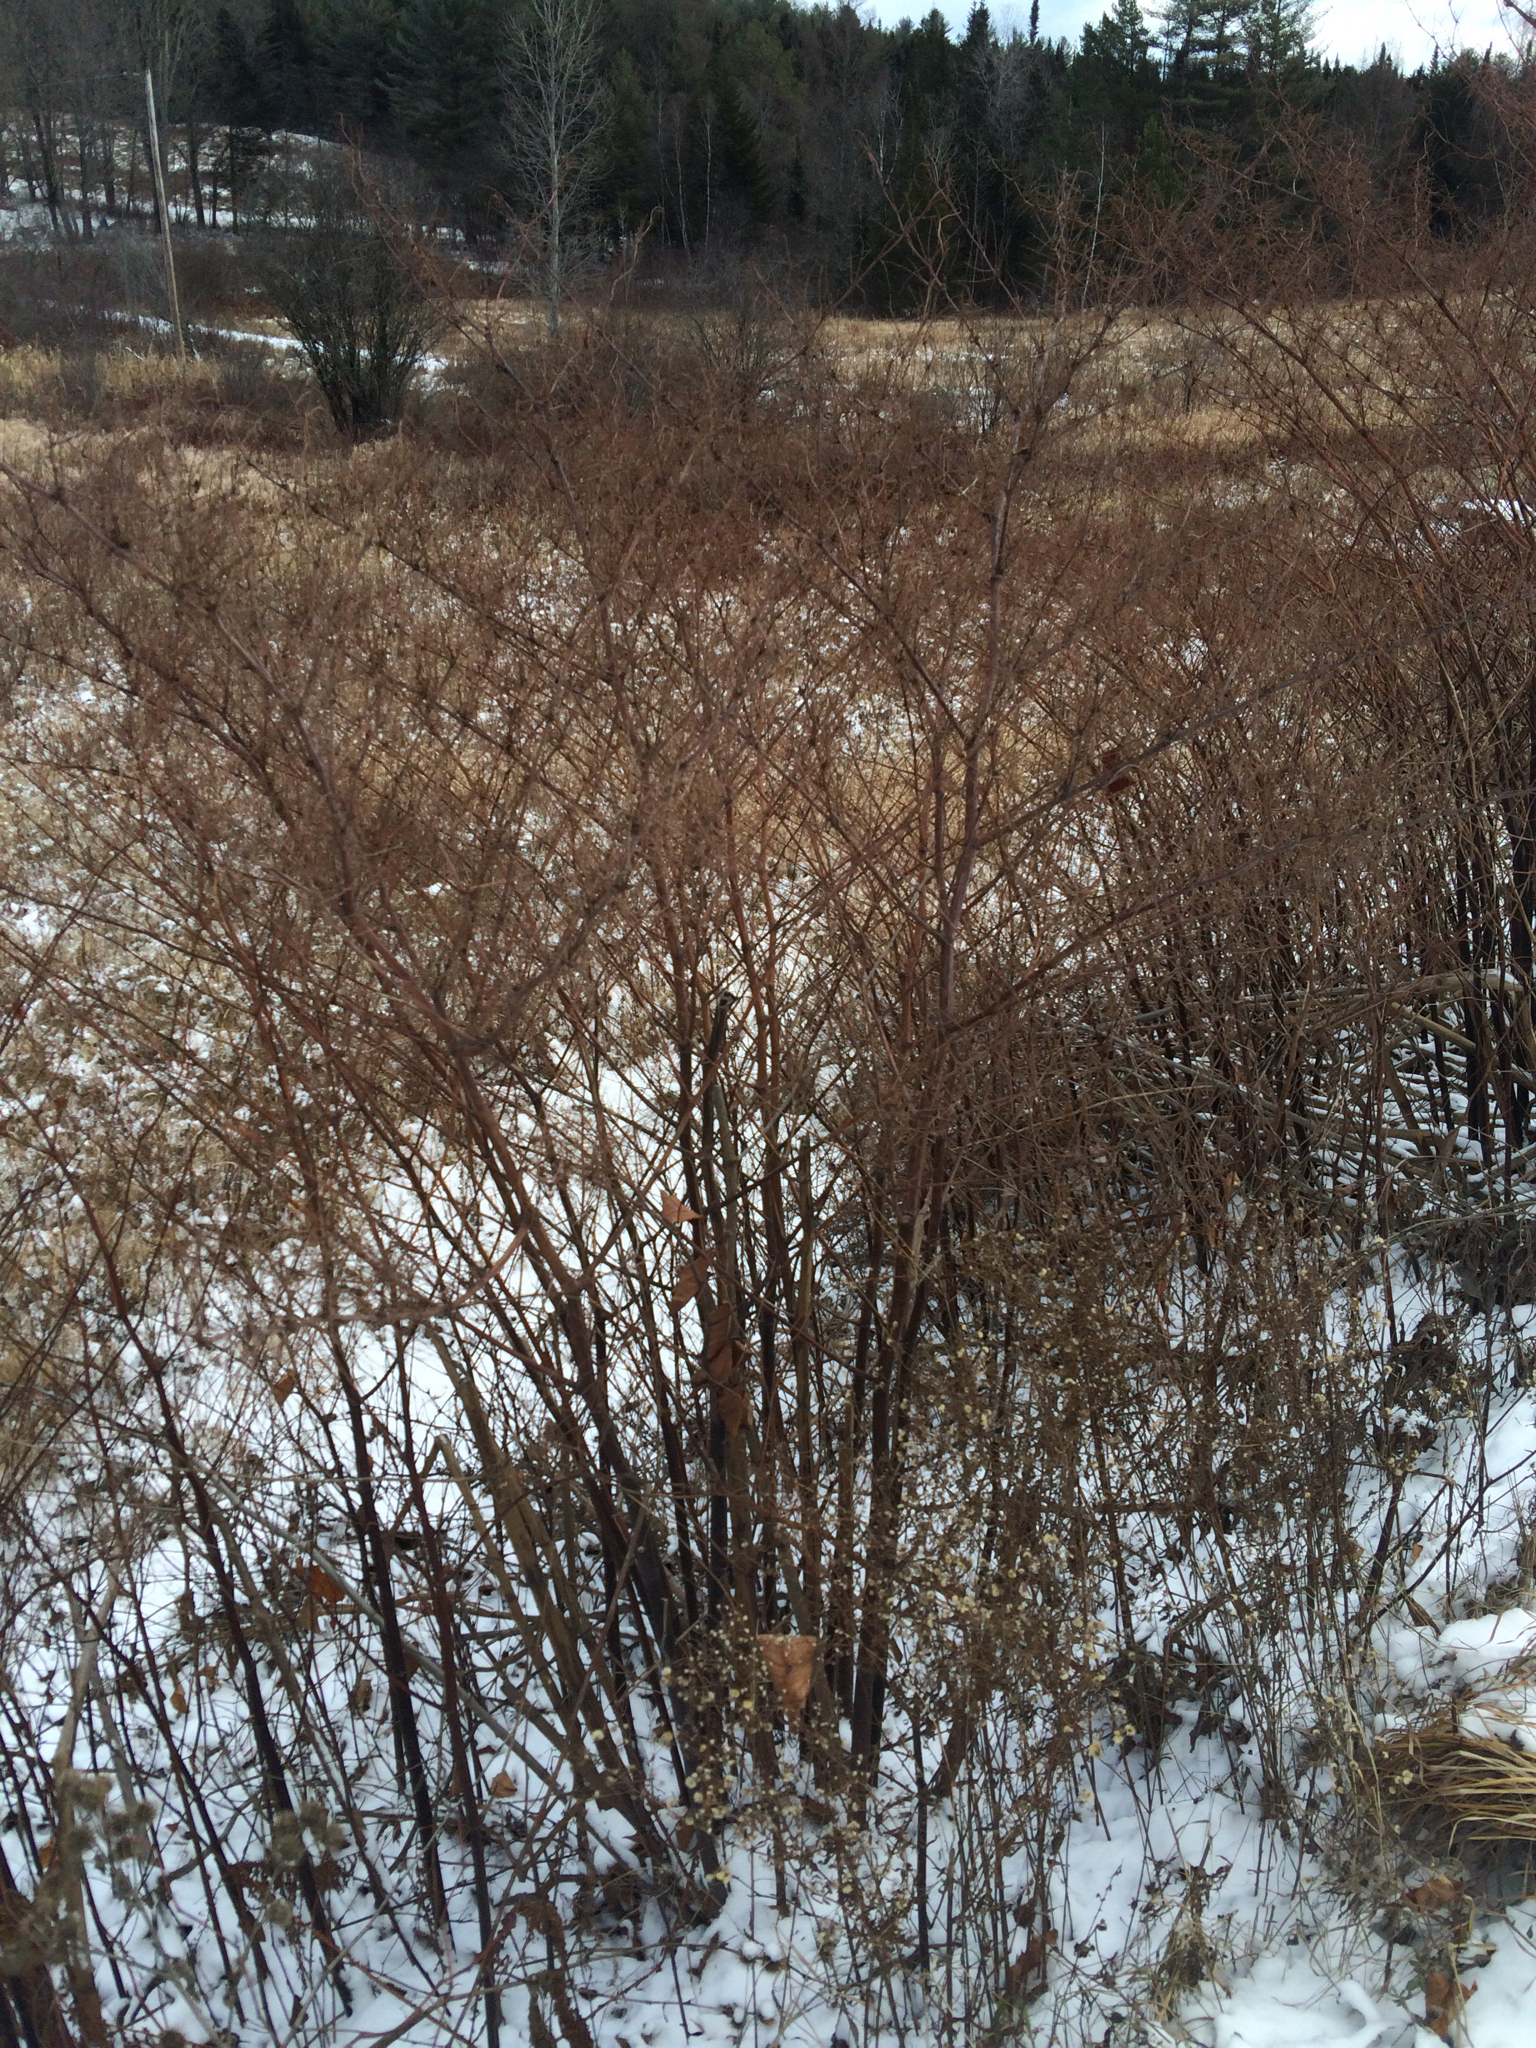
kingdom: Plantae
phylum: Tracheophyta
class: Magnoliopsida
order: Caryophyllales
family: Polygonaceae
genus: Reynoutria
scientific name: Reynoutria japonica
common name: Japanese knotweed
